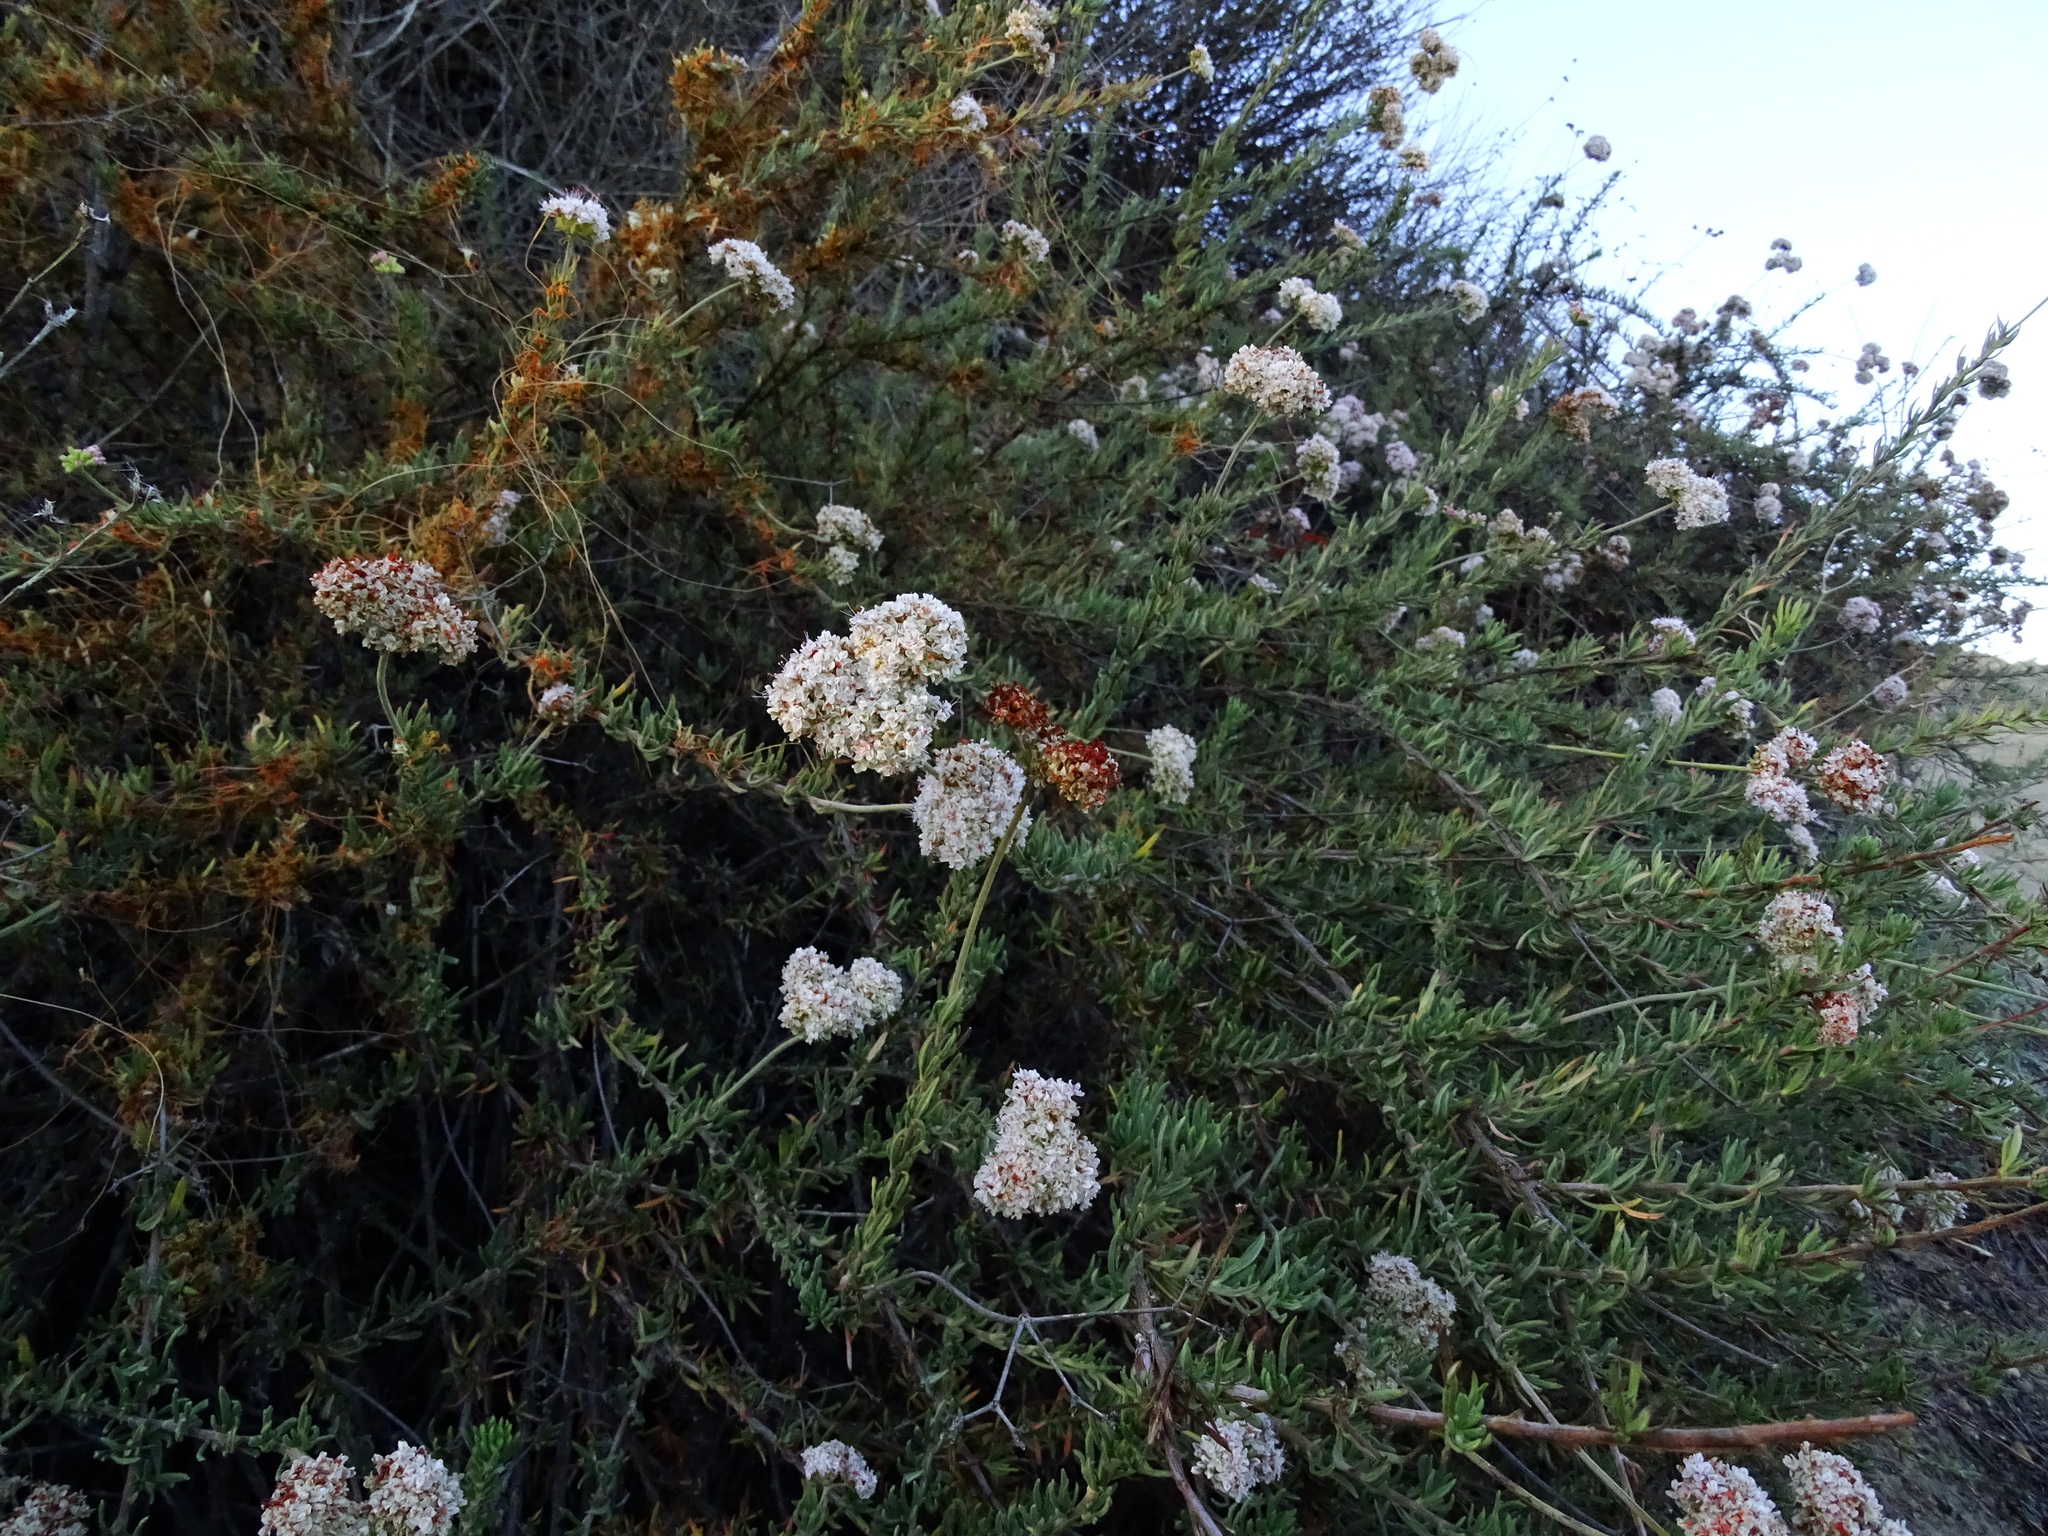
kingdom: Plantae
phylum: Tracheophyta
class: Magnoliopsida
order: Caryophyllales
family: Polygonaceae
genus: Eriogonum
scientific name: Eriogonum fasciculatum
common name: California wild buckwheat
